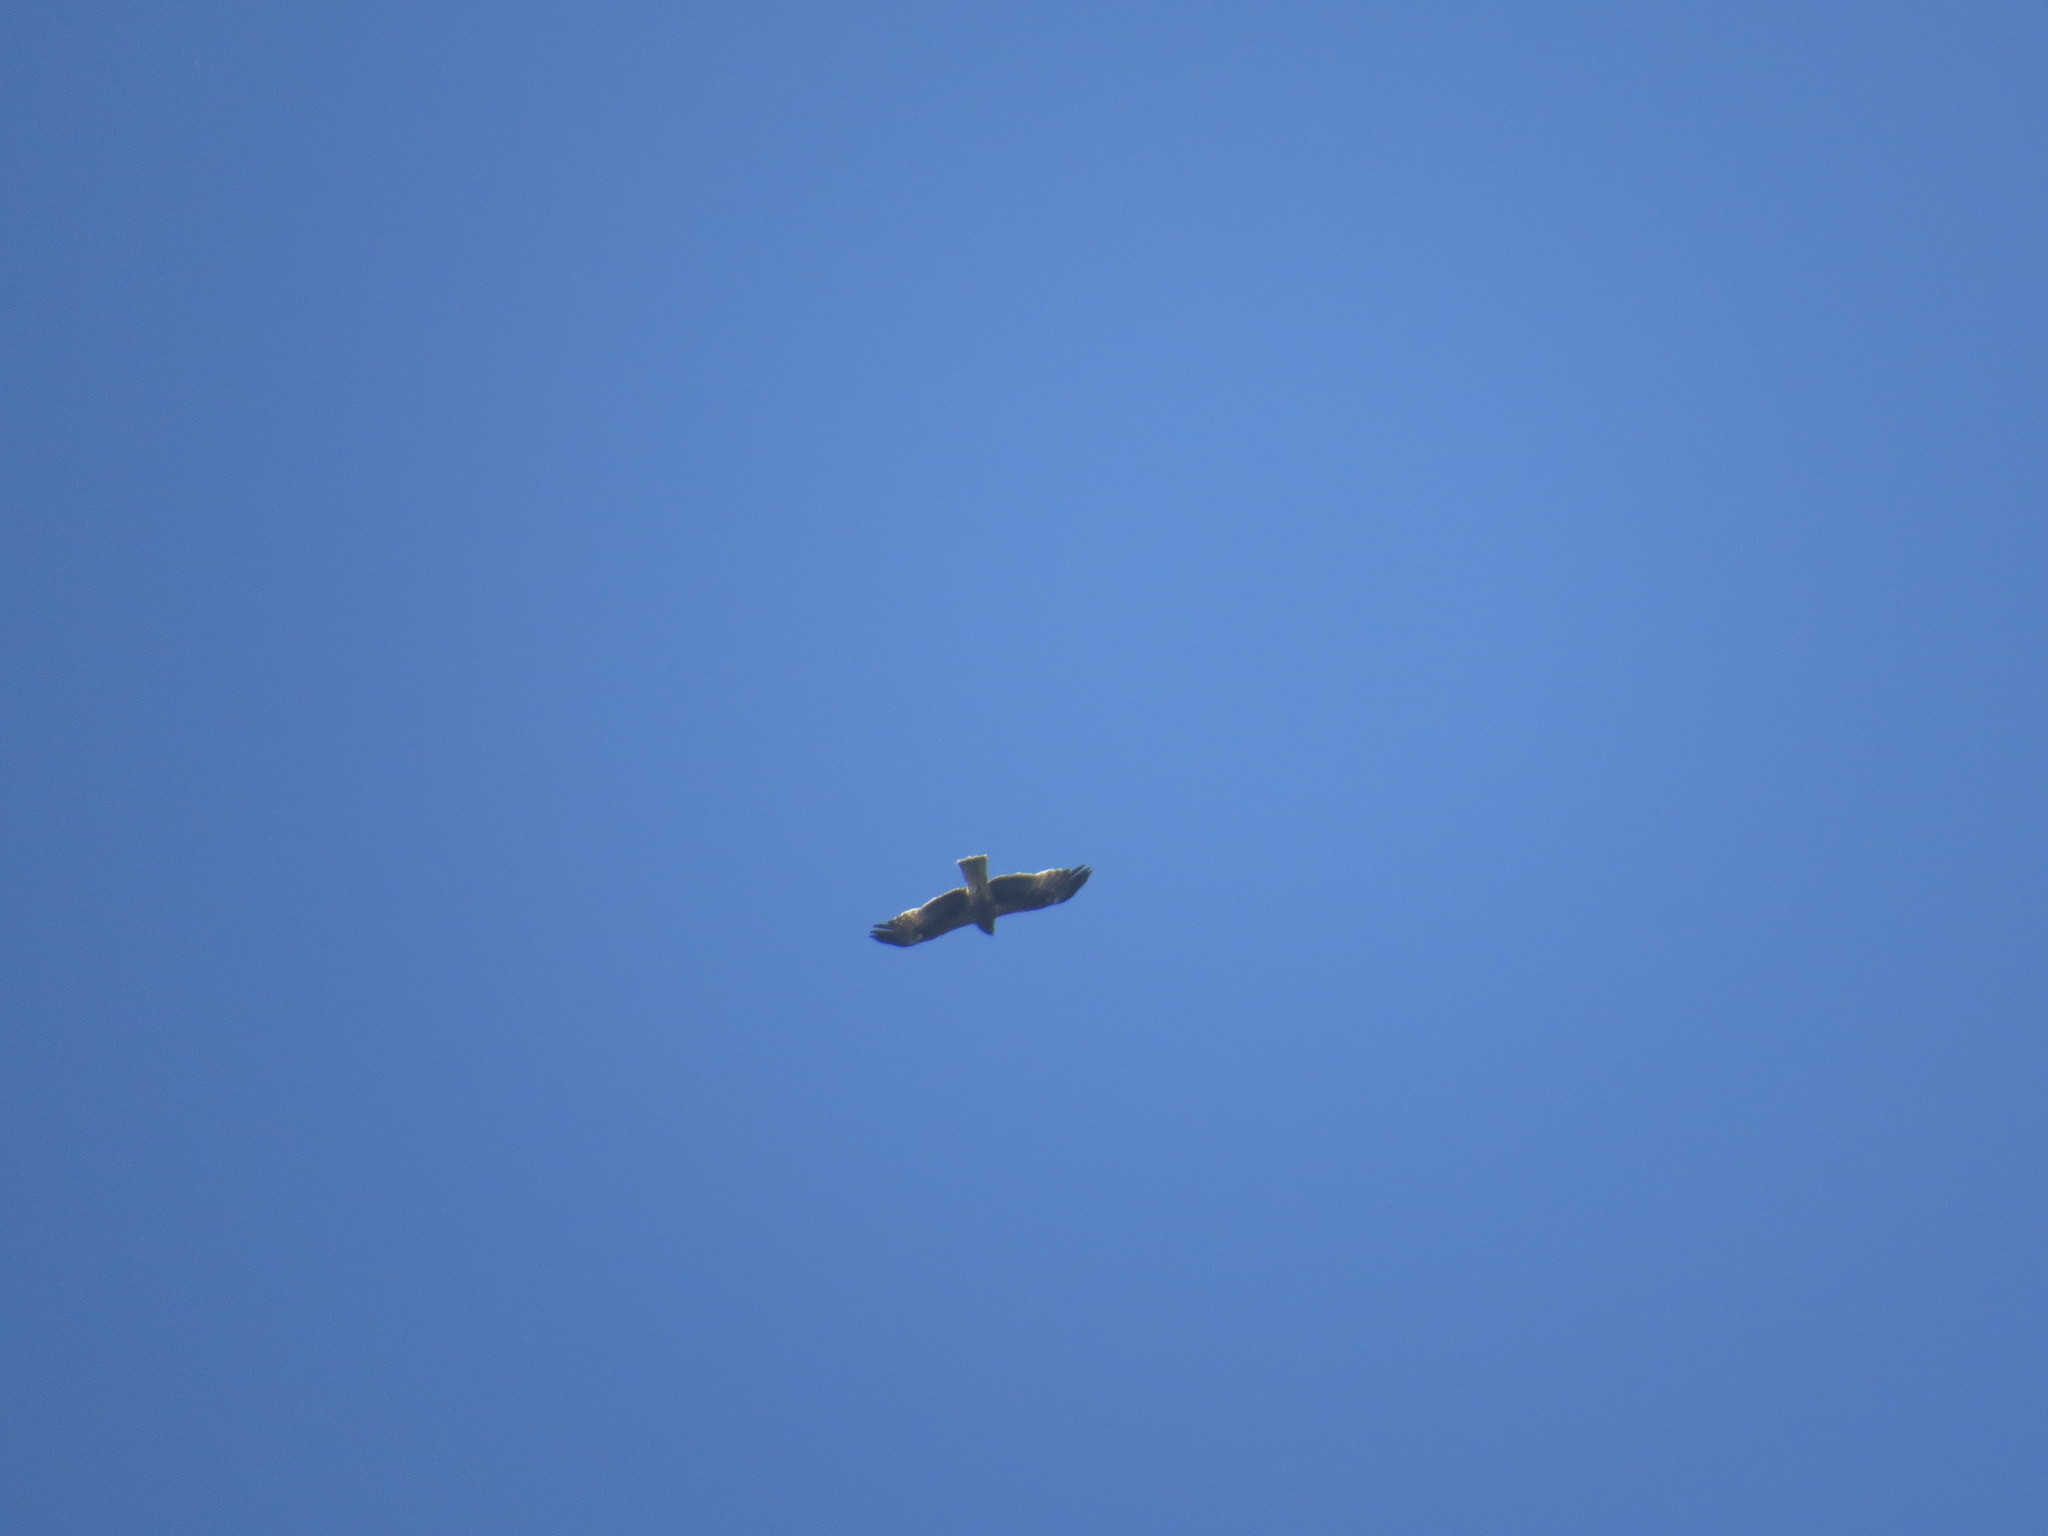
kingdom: Animalia
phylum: Chordata
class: Aves
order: Accipitriformes
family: Accipitridae
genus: Hieraaetus
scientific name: Hieraaetus pennatus
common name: Booted eagle
